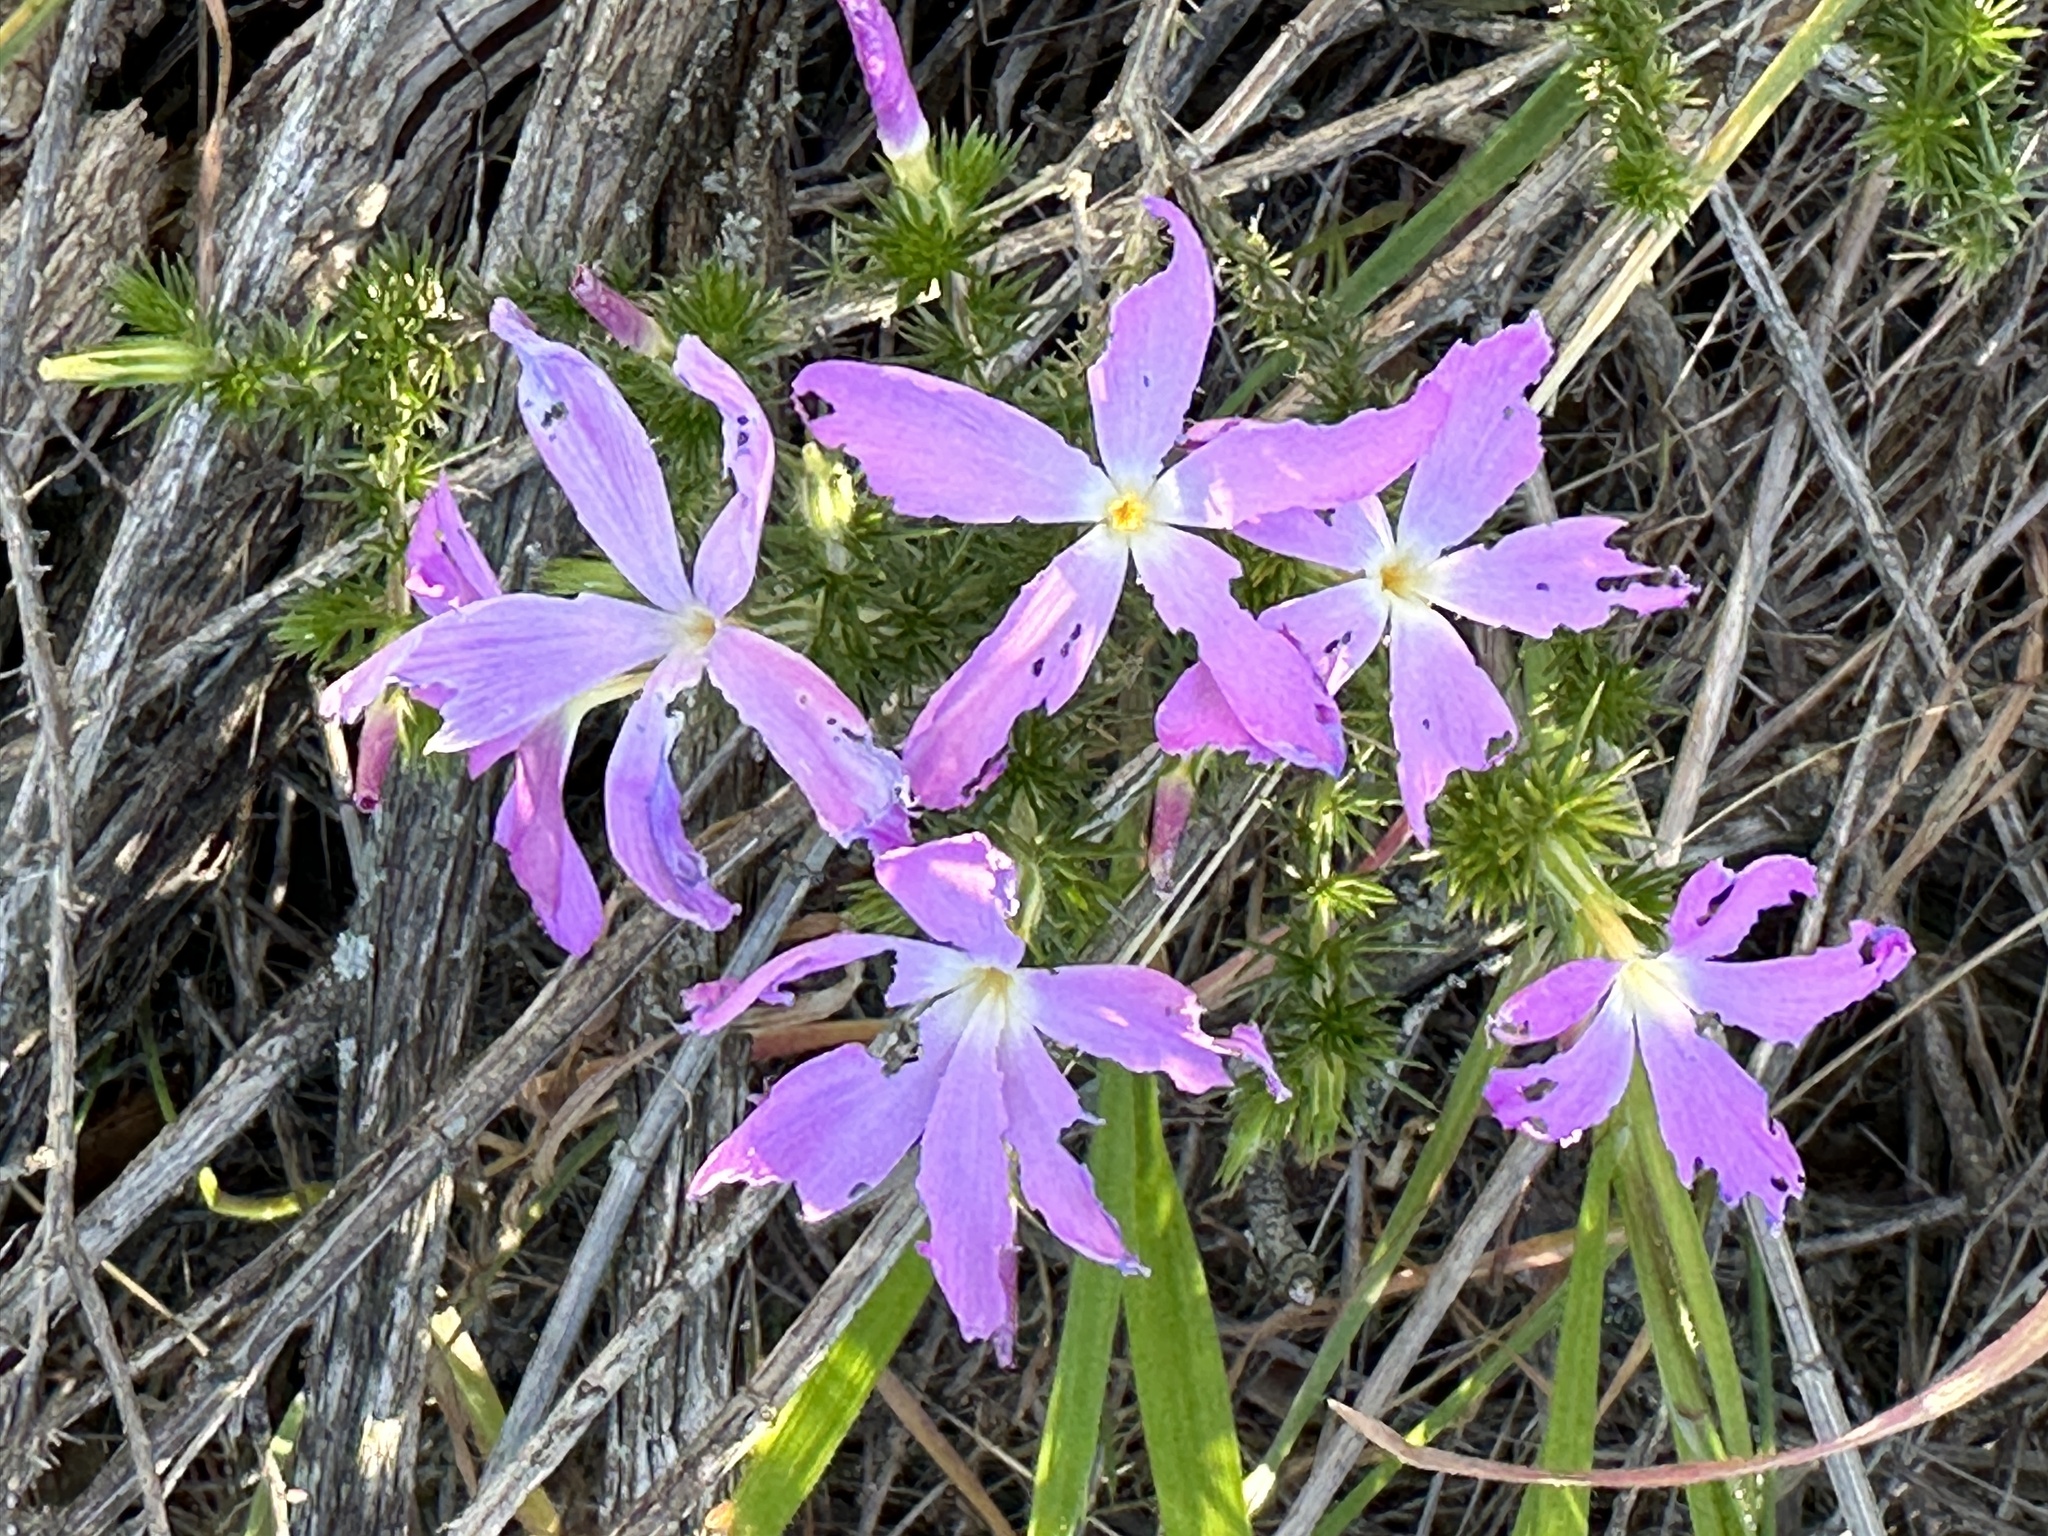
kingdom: Plantae
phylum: Tracheophyta
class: Magnoliopsida
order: Ericales
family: Polemoniaceae
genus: Linanthus
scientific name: Linanthus californicus
